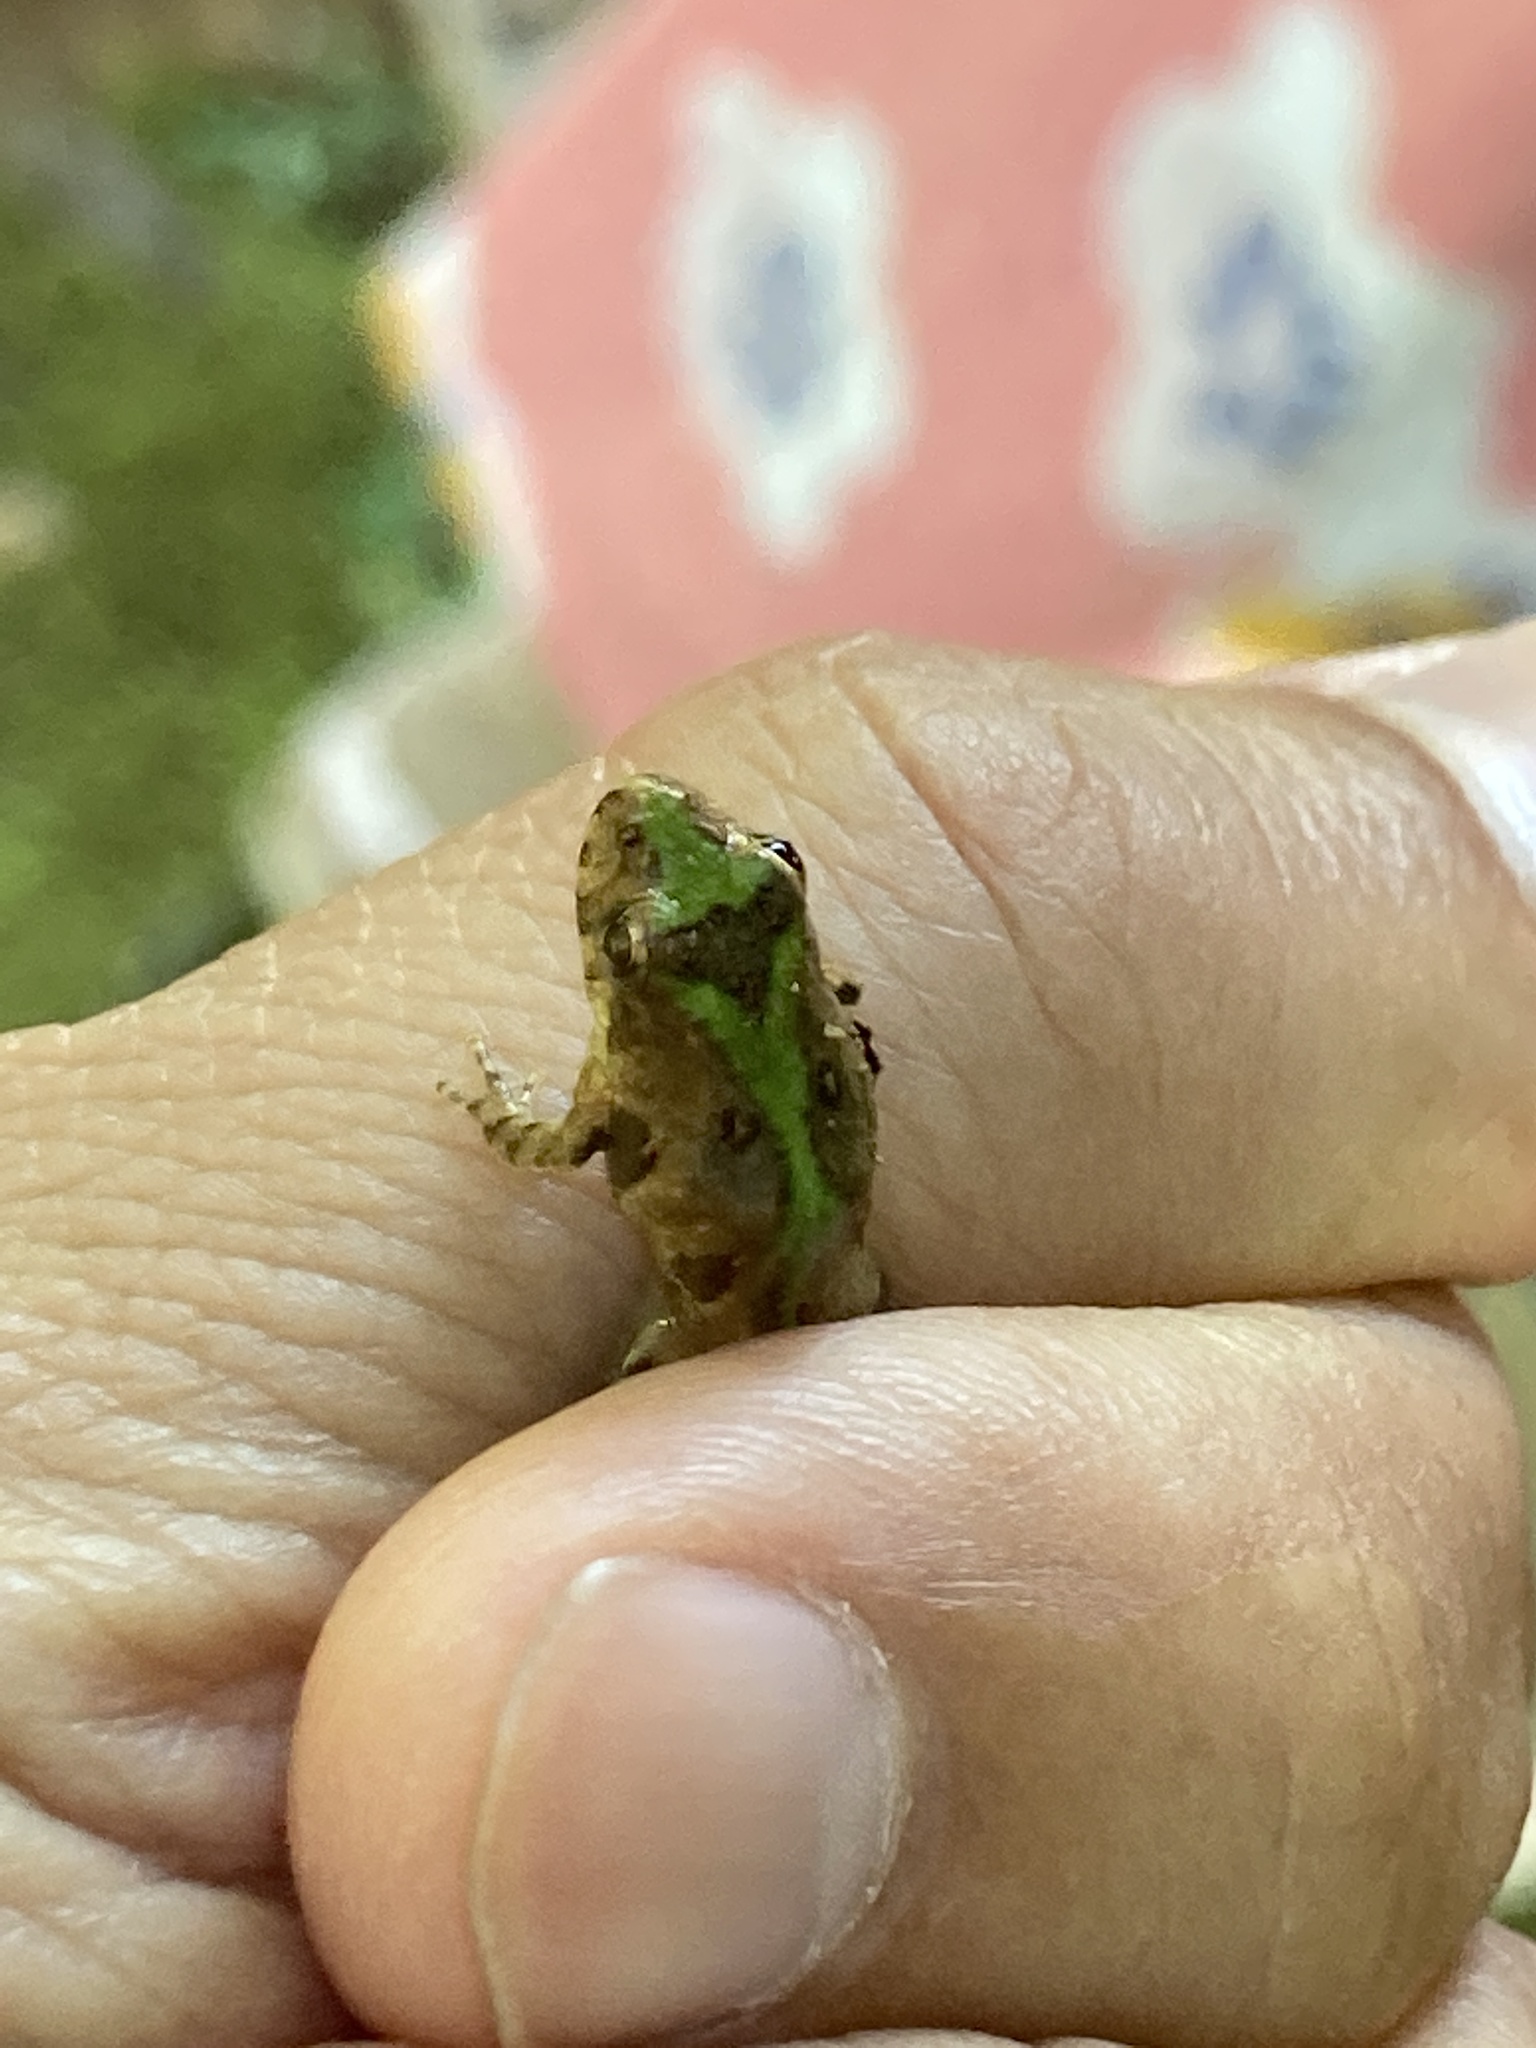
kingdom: Animalia
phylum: Chordata
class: Amphibia
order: Anura
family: Hylidae
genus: Acris
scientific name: Acris crepitans
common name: Northern cricket frog
